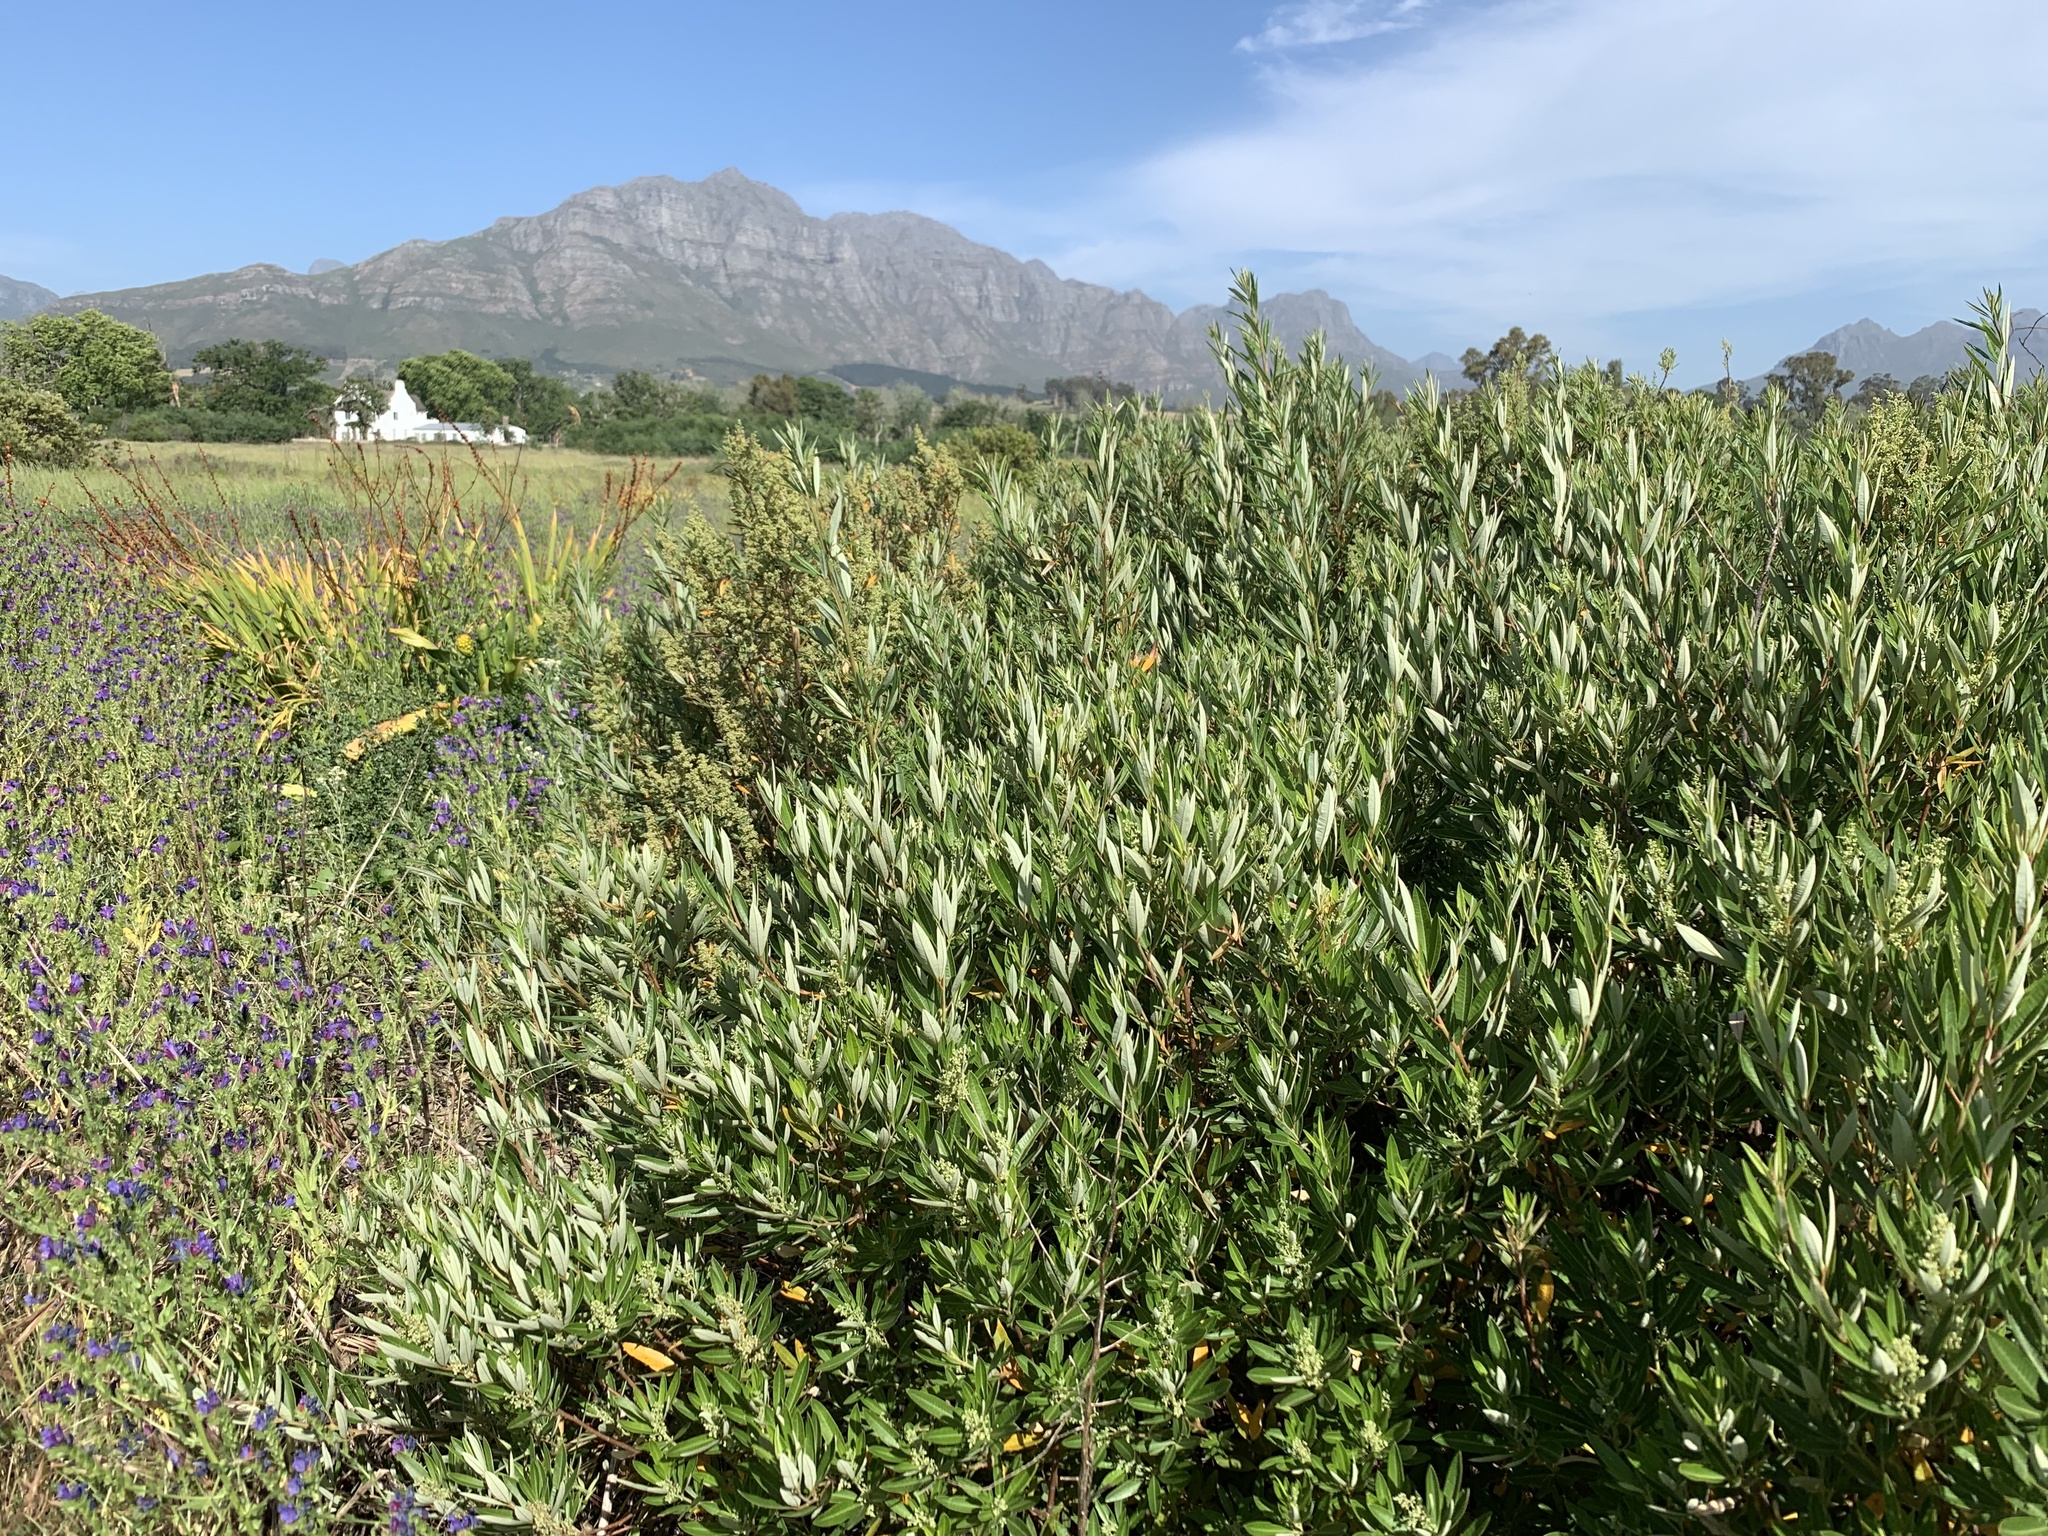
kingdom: Plantae
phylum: Tracheophyta
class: Magnoliopsida
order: Sapindales
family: Anacardiaceae
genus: Searsia
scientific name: Searsia angustifolia
